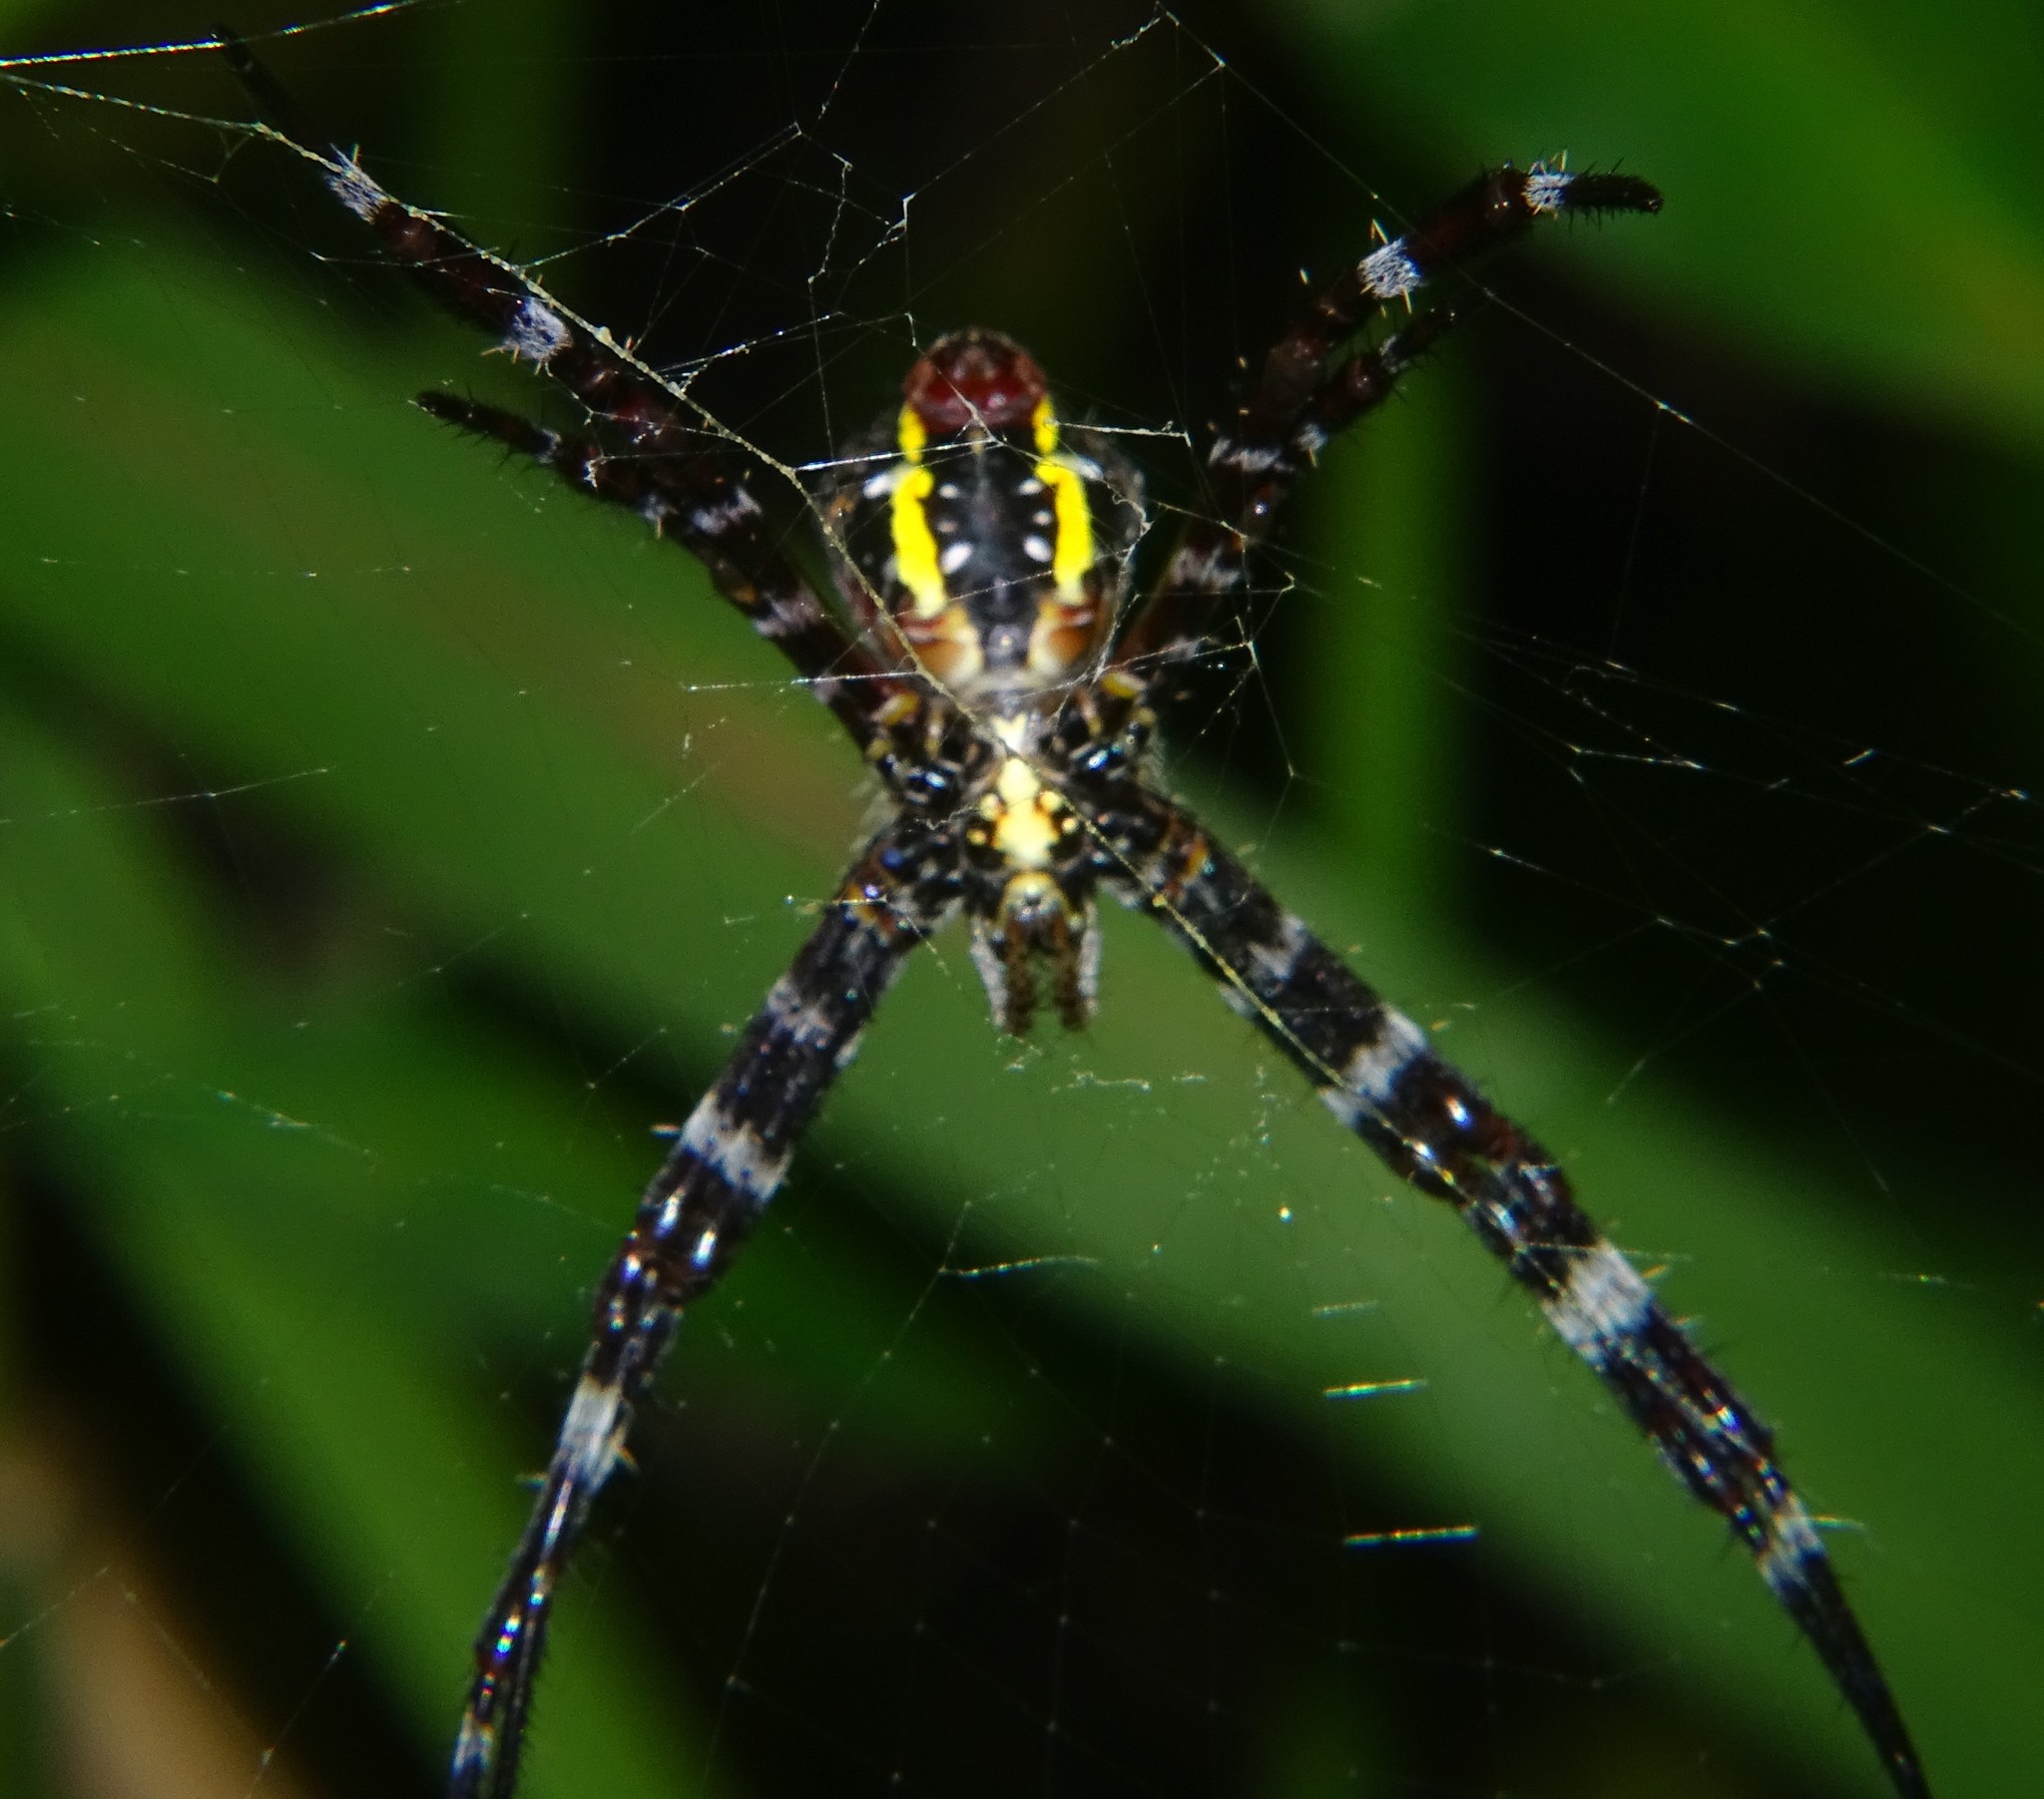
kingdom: Animalia
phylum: Arthropoda
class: Arachnida
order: Araneae
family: Araneidae
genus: Argiope
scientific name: Argiope appensa
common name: Garden spider
